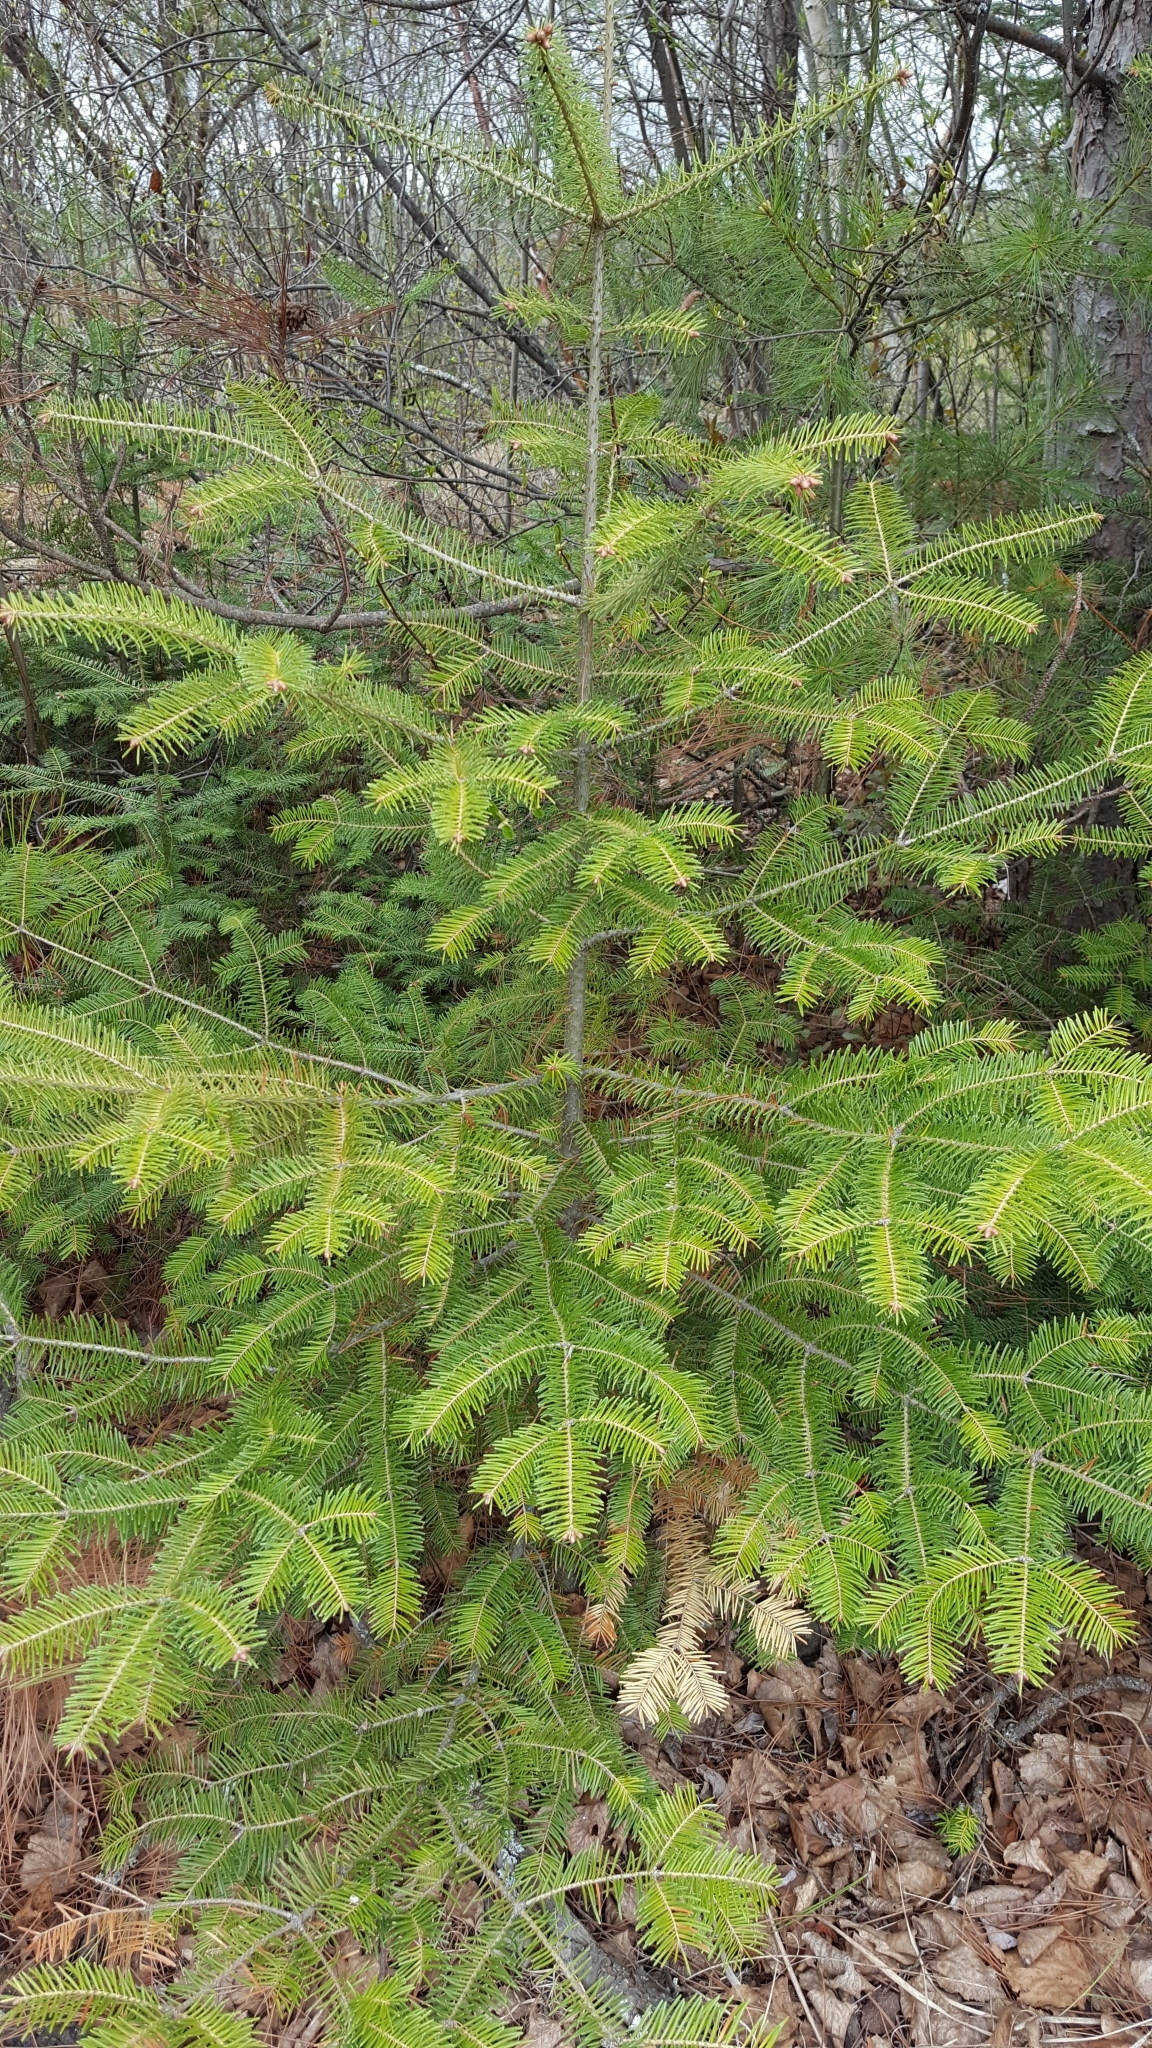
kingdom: Plantae
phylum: Tracheophyta
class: Pinopsida
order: Pinales
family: Pinaceae
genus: Abies
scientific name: Abies balsamea
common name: Balsam fir
